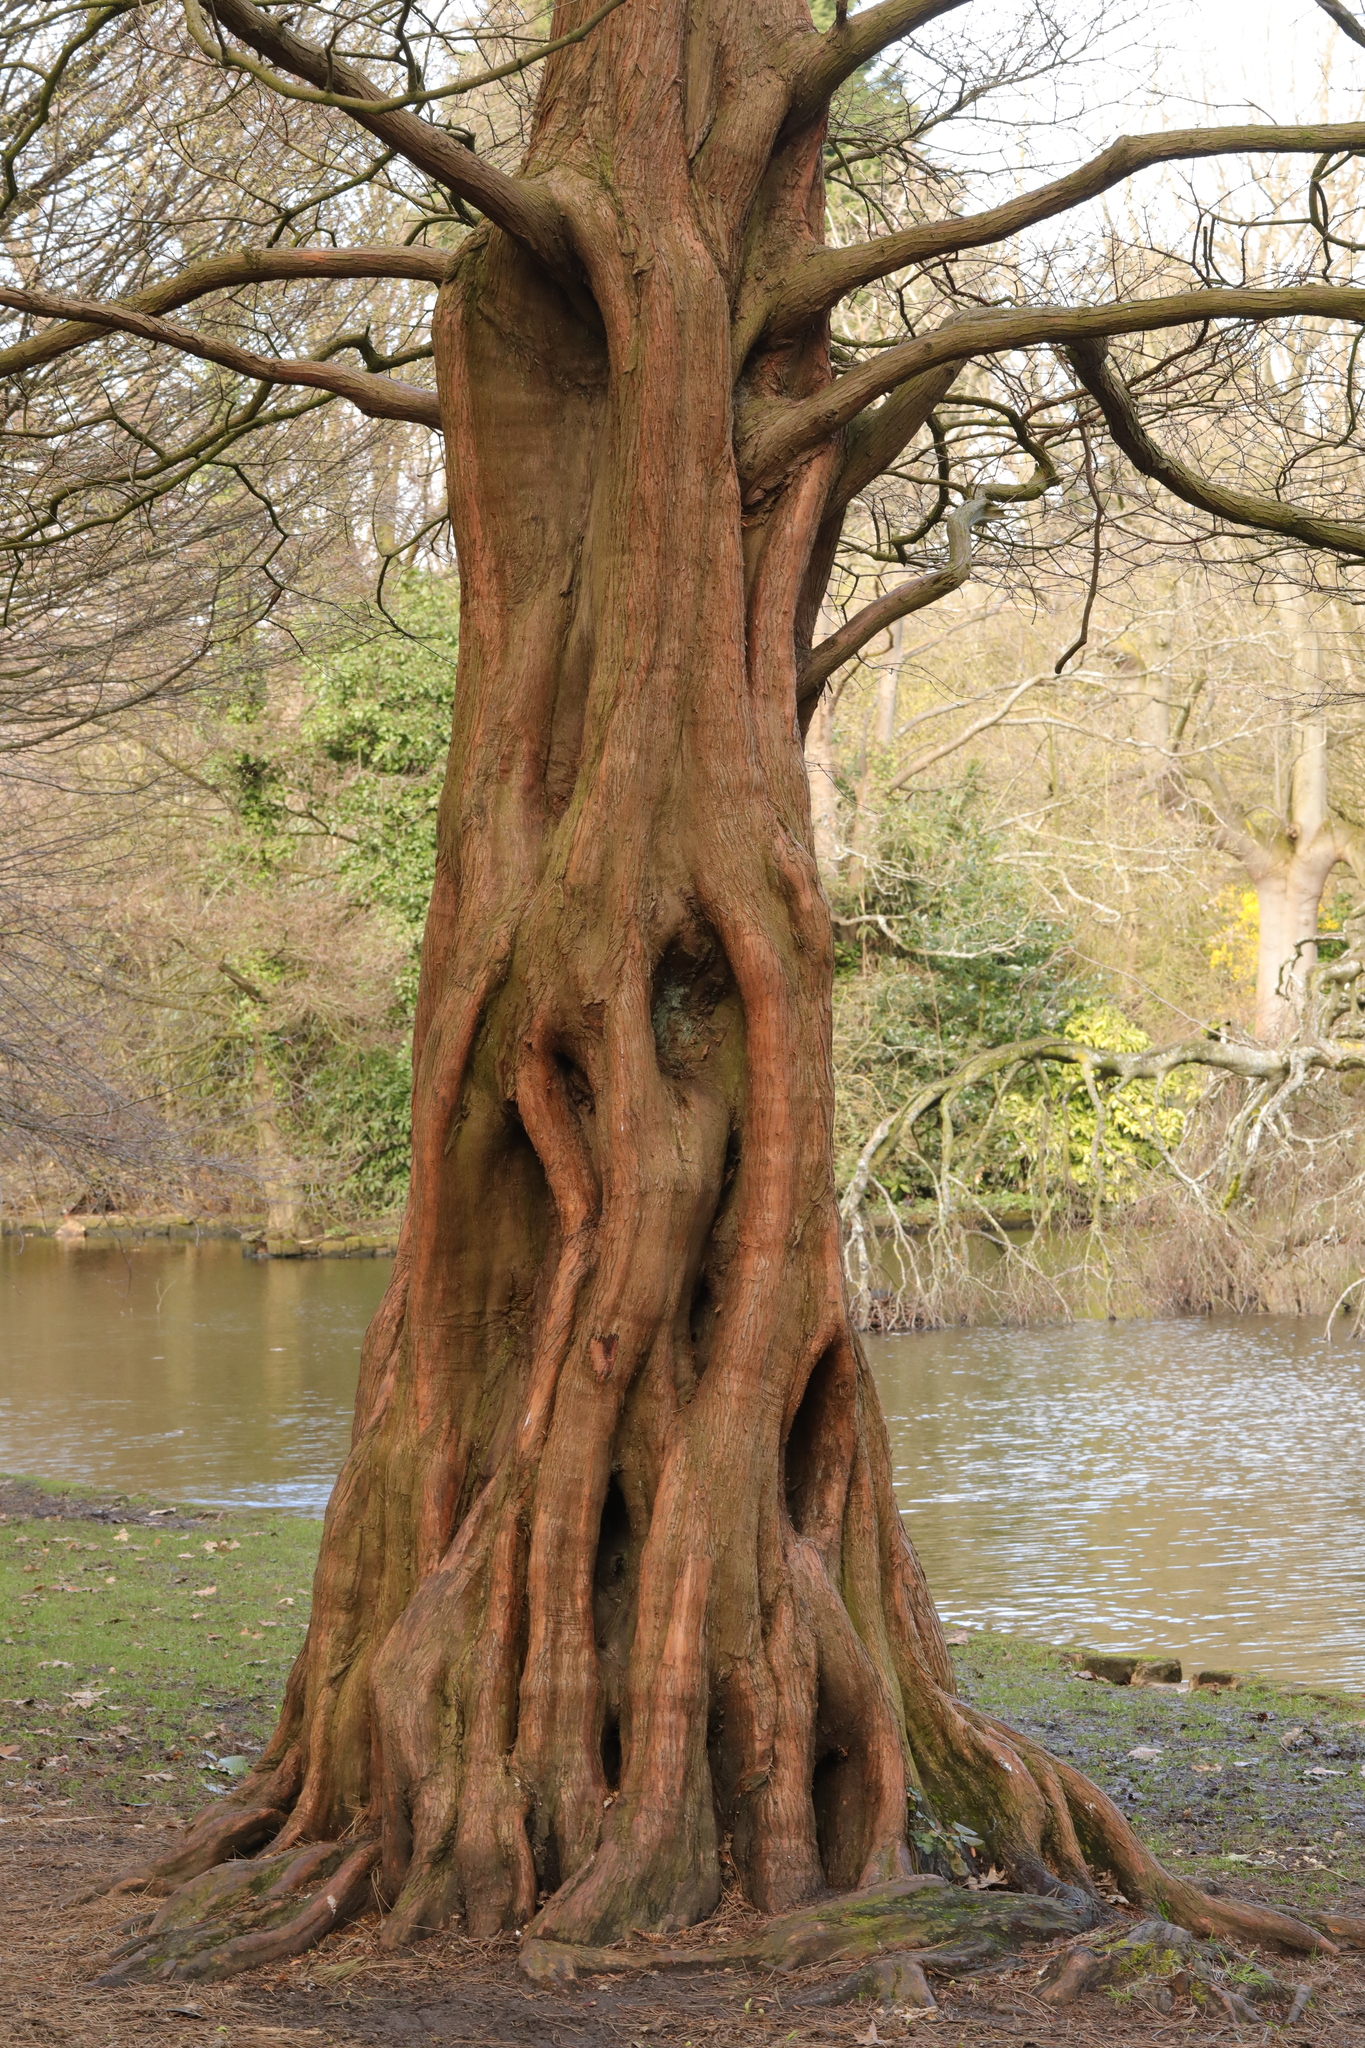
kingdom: Plantae
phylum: Tracheophyta
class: Pinopsida
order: Pinales
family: Cupressaceae
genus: Metasequoia
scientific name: Metasequoia glyptostroboides
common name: Dawn redwood
